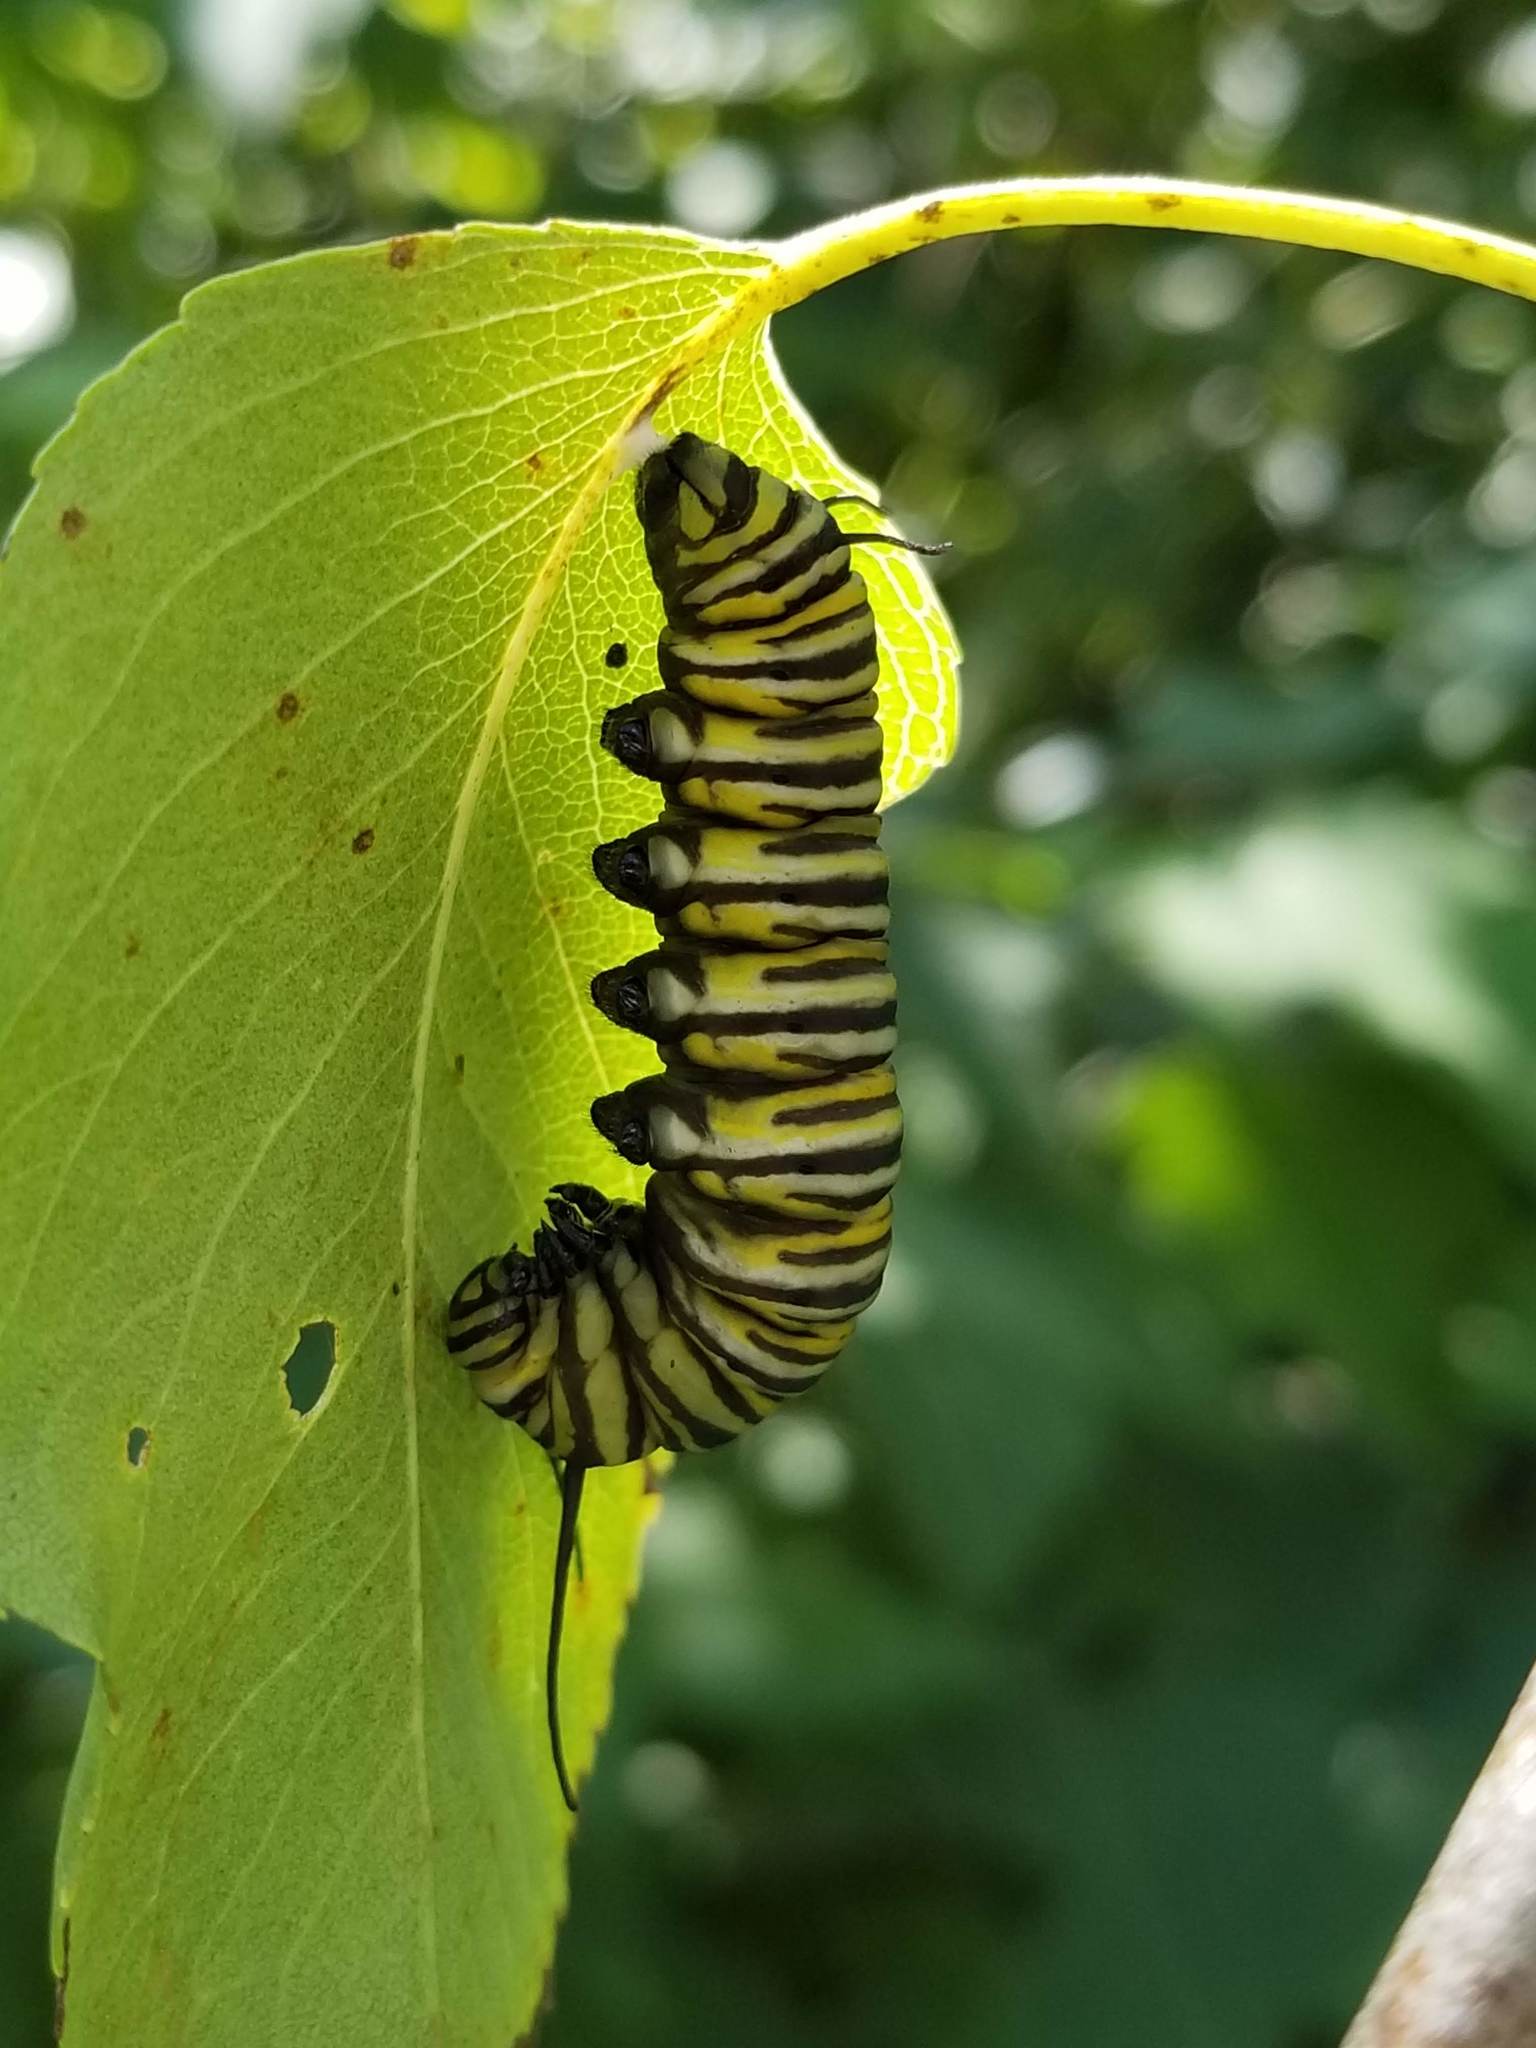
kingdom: Animalia
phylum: Arthropoda
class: Insecta
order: Lepidoptera
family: Nymphalidae
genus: Danaus
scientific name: Danaus plexippus
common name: Monarch
